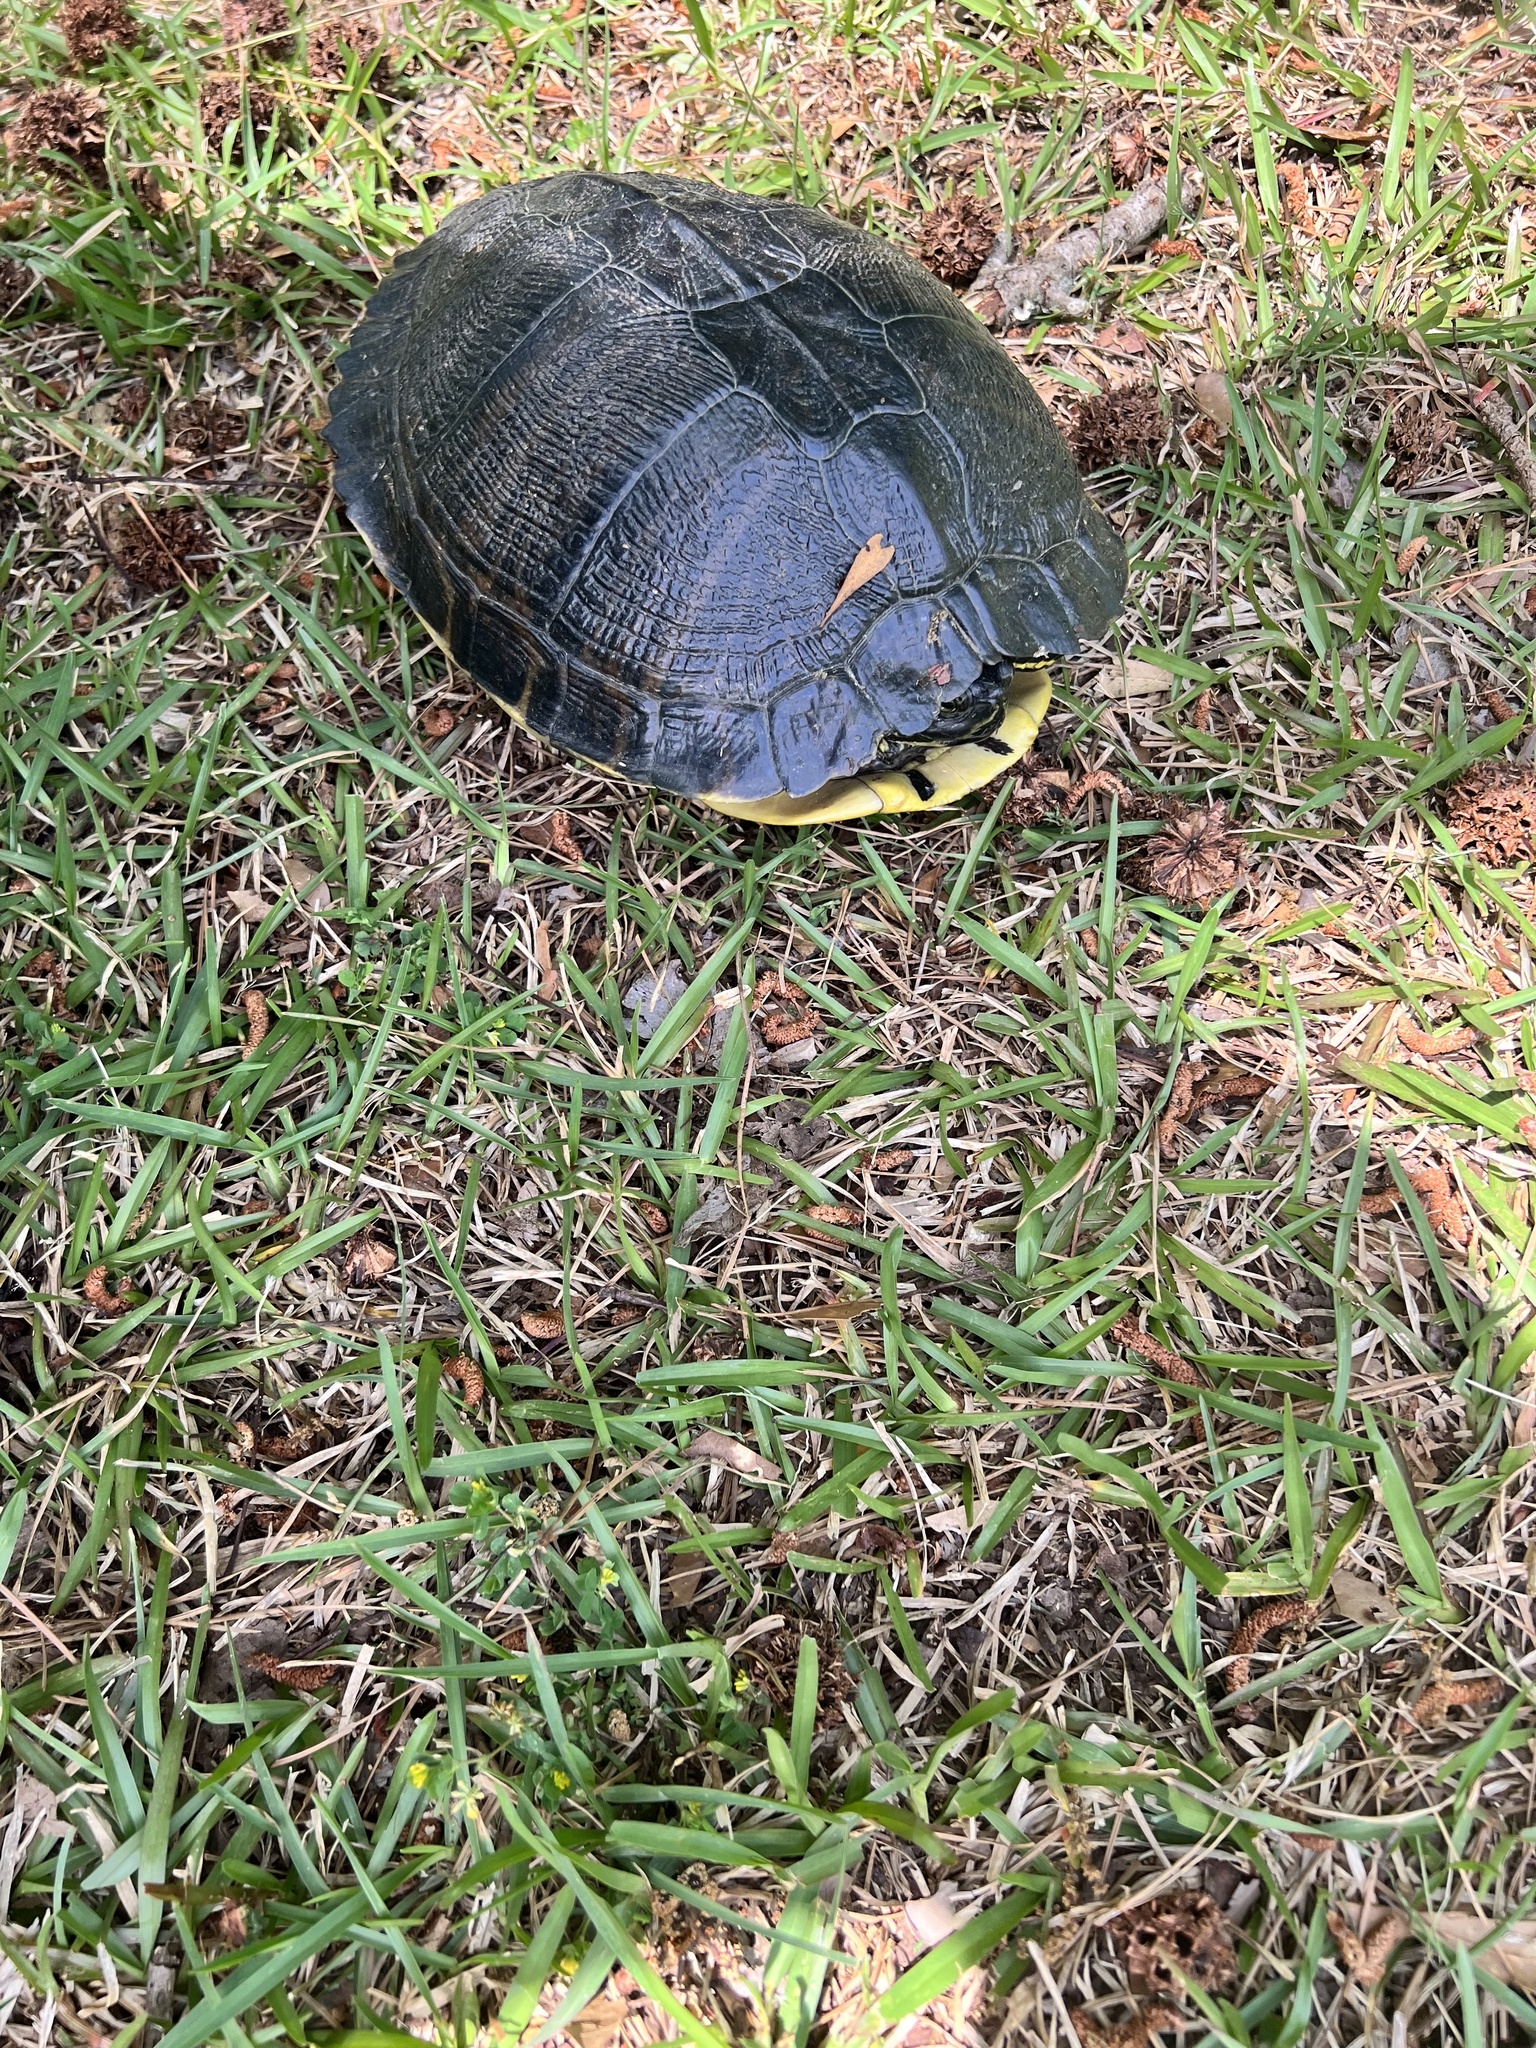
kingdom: Animalia
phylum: Chordata
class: Testudines
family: Emydidae
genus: Trachemys
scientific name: Trachemys scripta
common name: Slider
